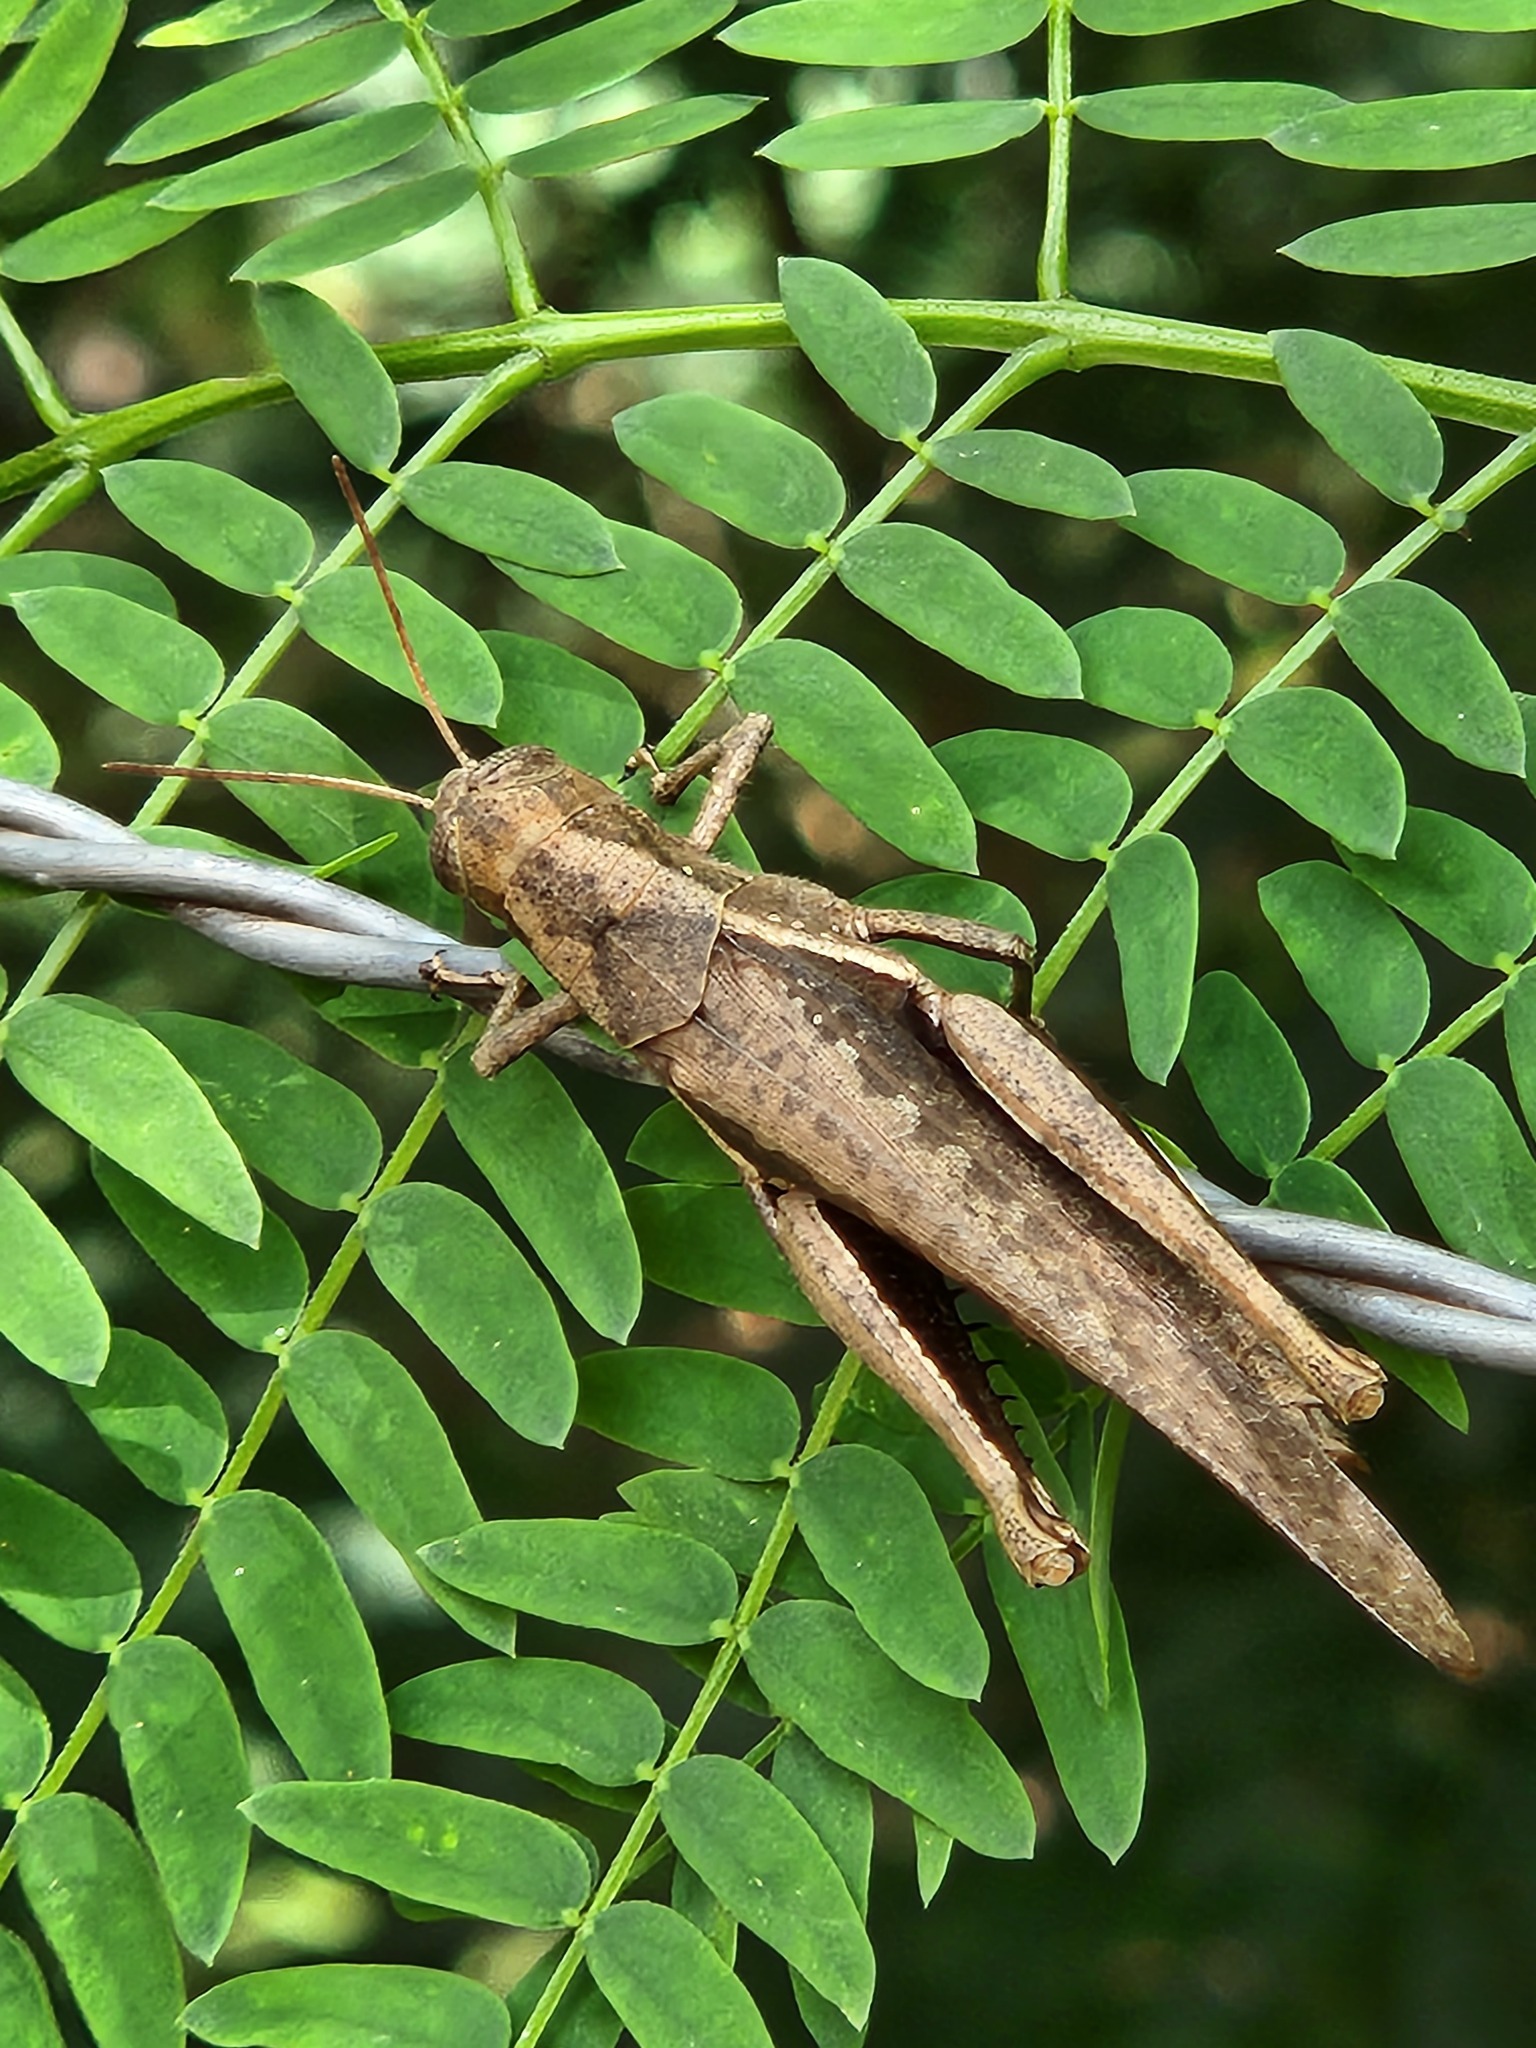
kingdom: Animalia
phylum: Arthropoda
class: Insecta
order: Orthoptera
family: Acrididae
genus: Abracris
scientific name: Abracris flavolineata
